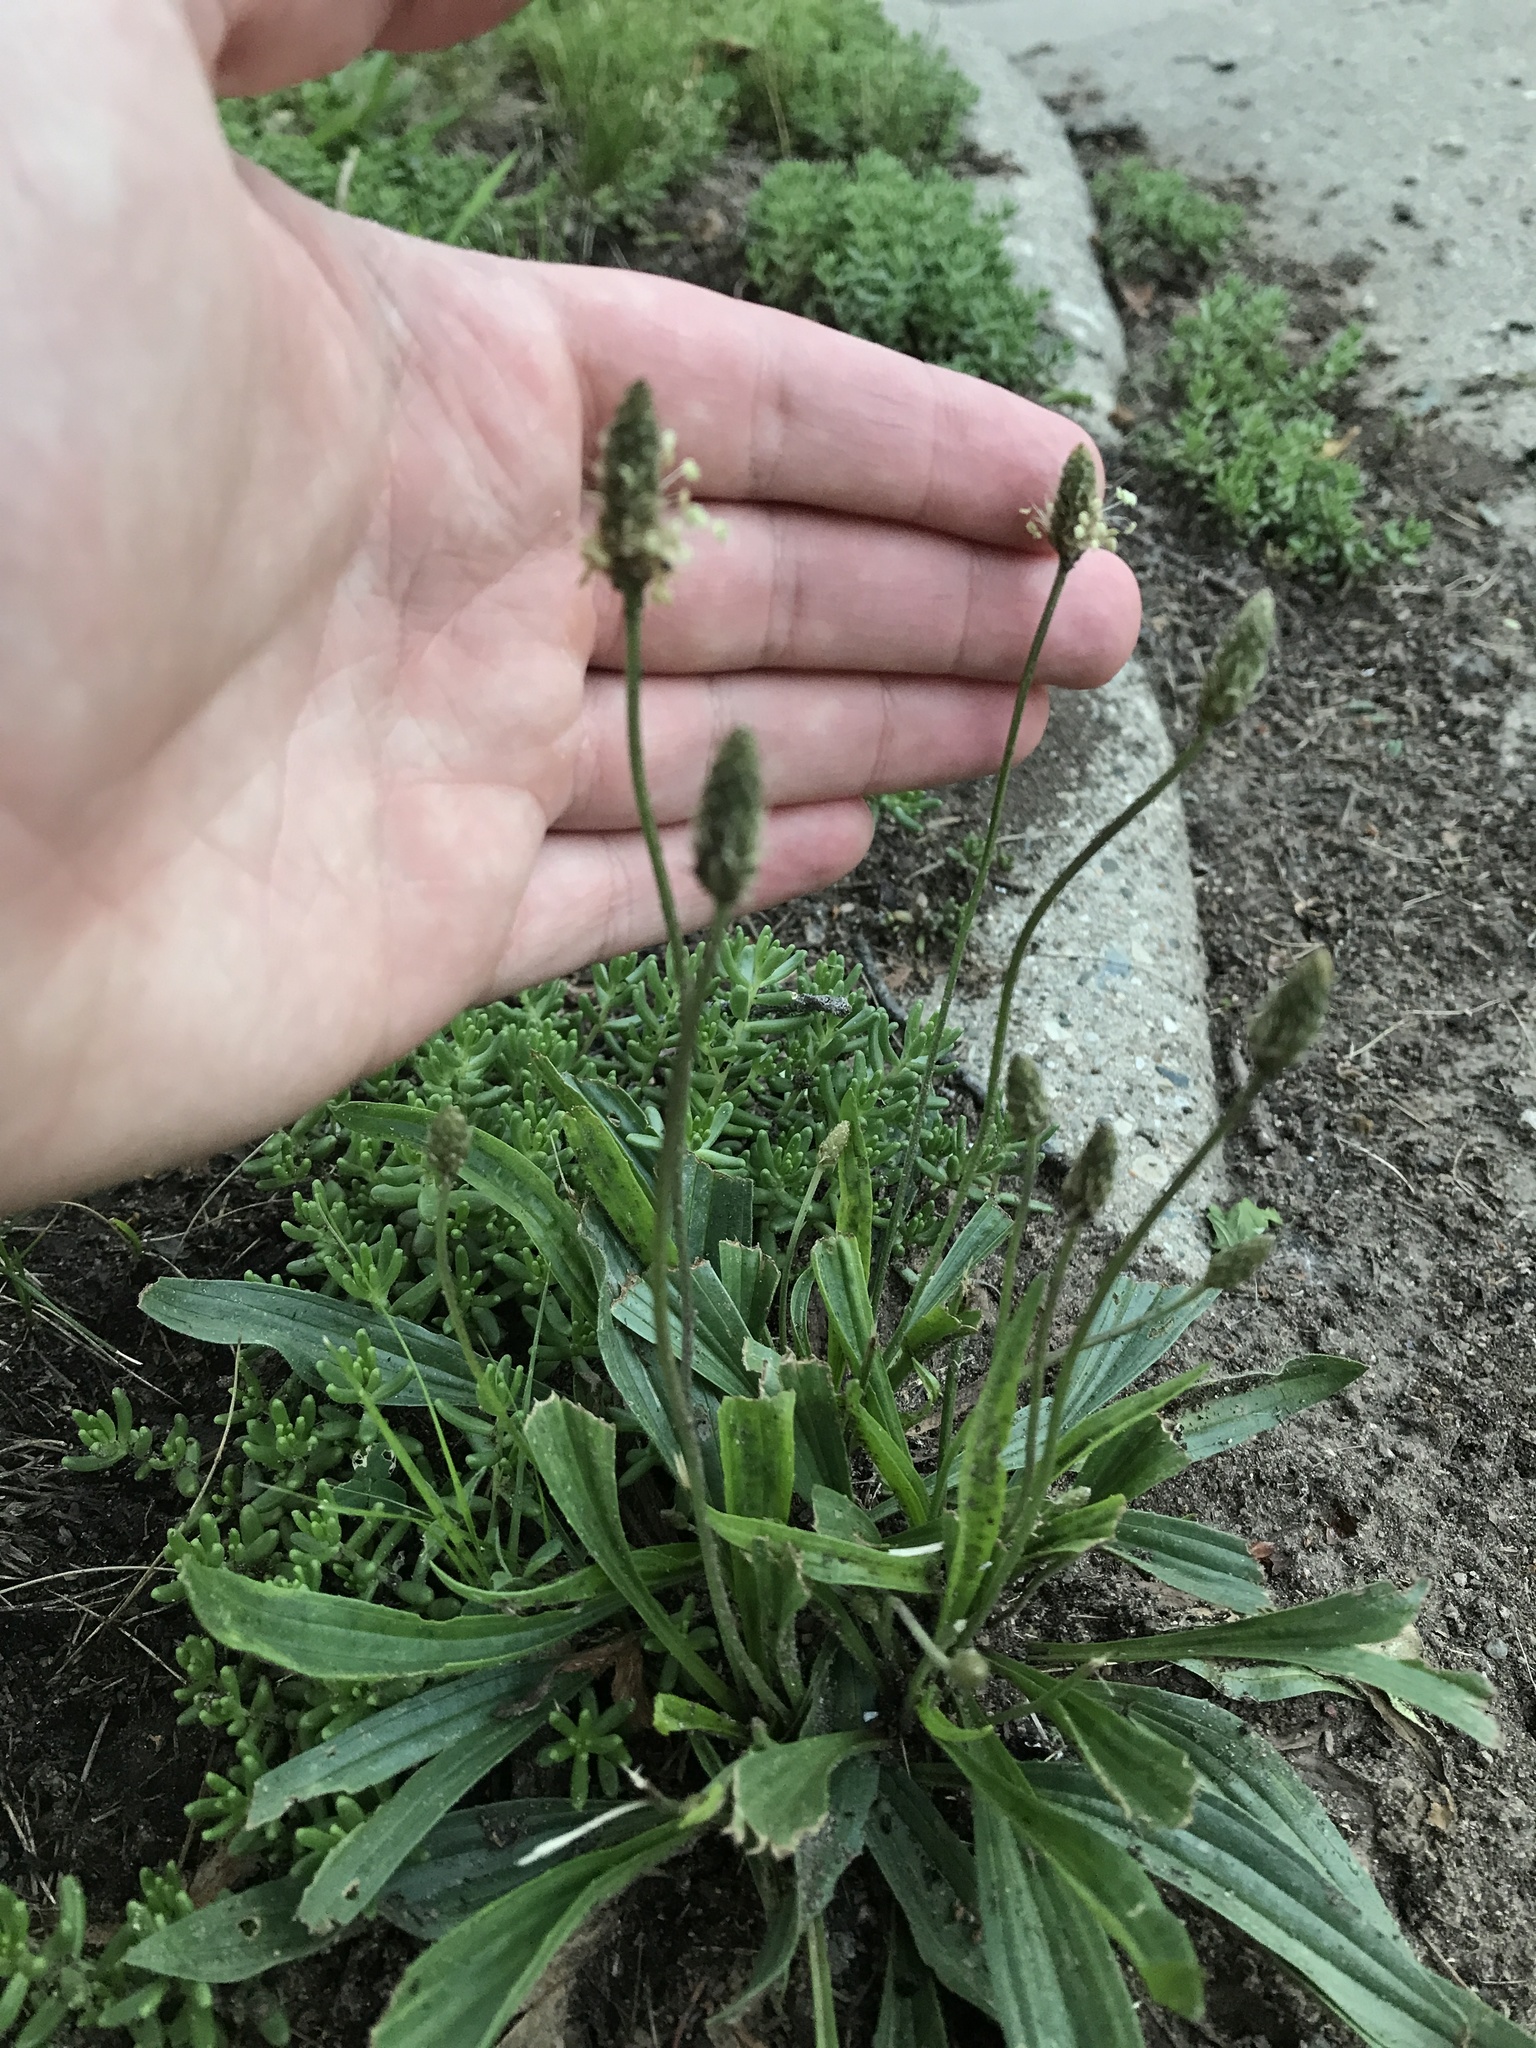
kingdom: Plantae
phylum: Tracheophyta
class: Magnoliopsida
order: Lamiales
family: Plantaginaceae
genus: Plantago
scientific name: Plantago lanceolata
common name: Ribwort plantain
